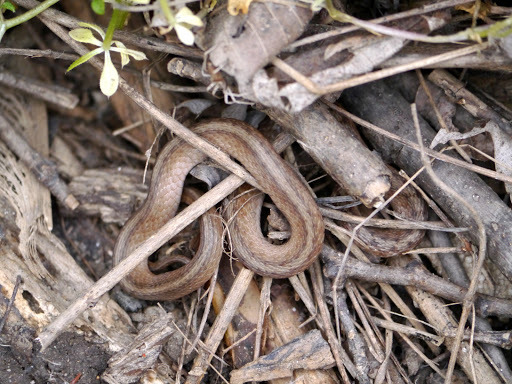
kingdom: Animalia
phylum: Chordata
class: Squamata
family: Colubridae
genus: Storeria
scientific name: Storeria dekayi
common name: (dekay’s) brown snake
